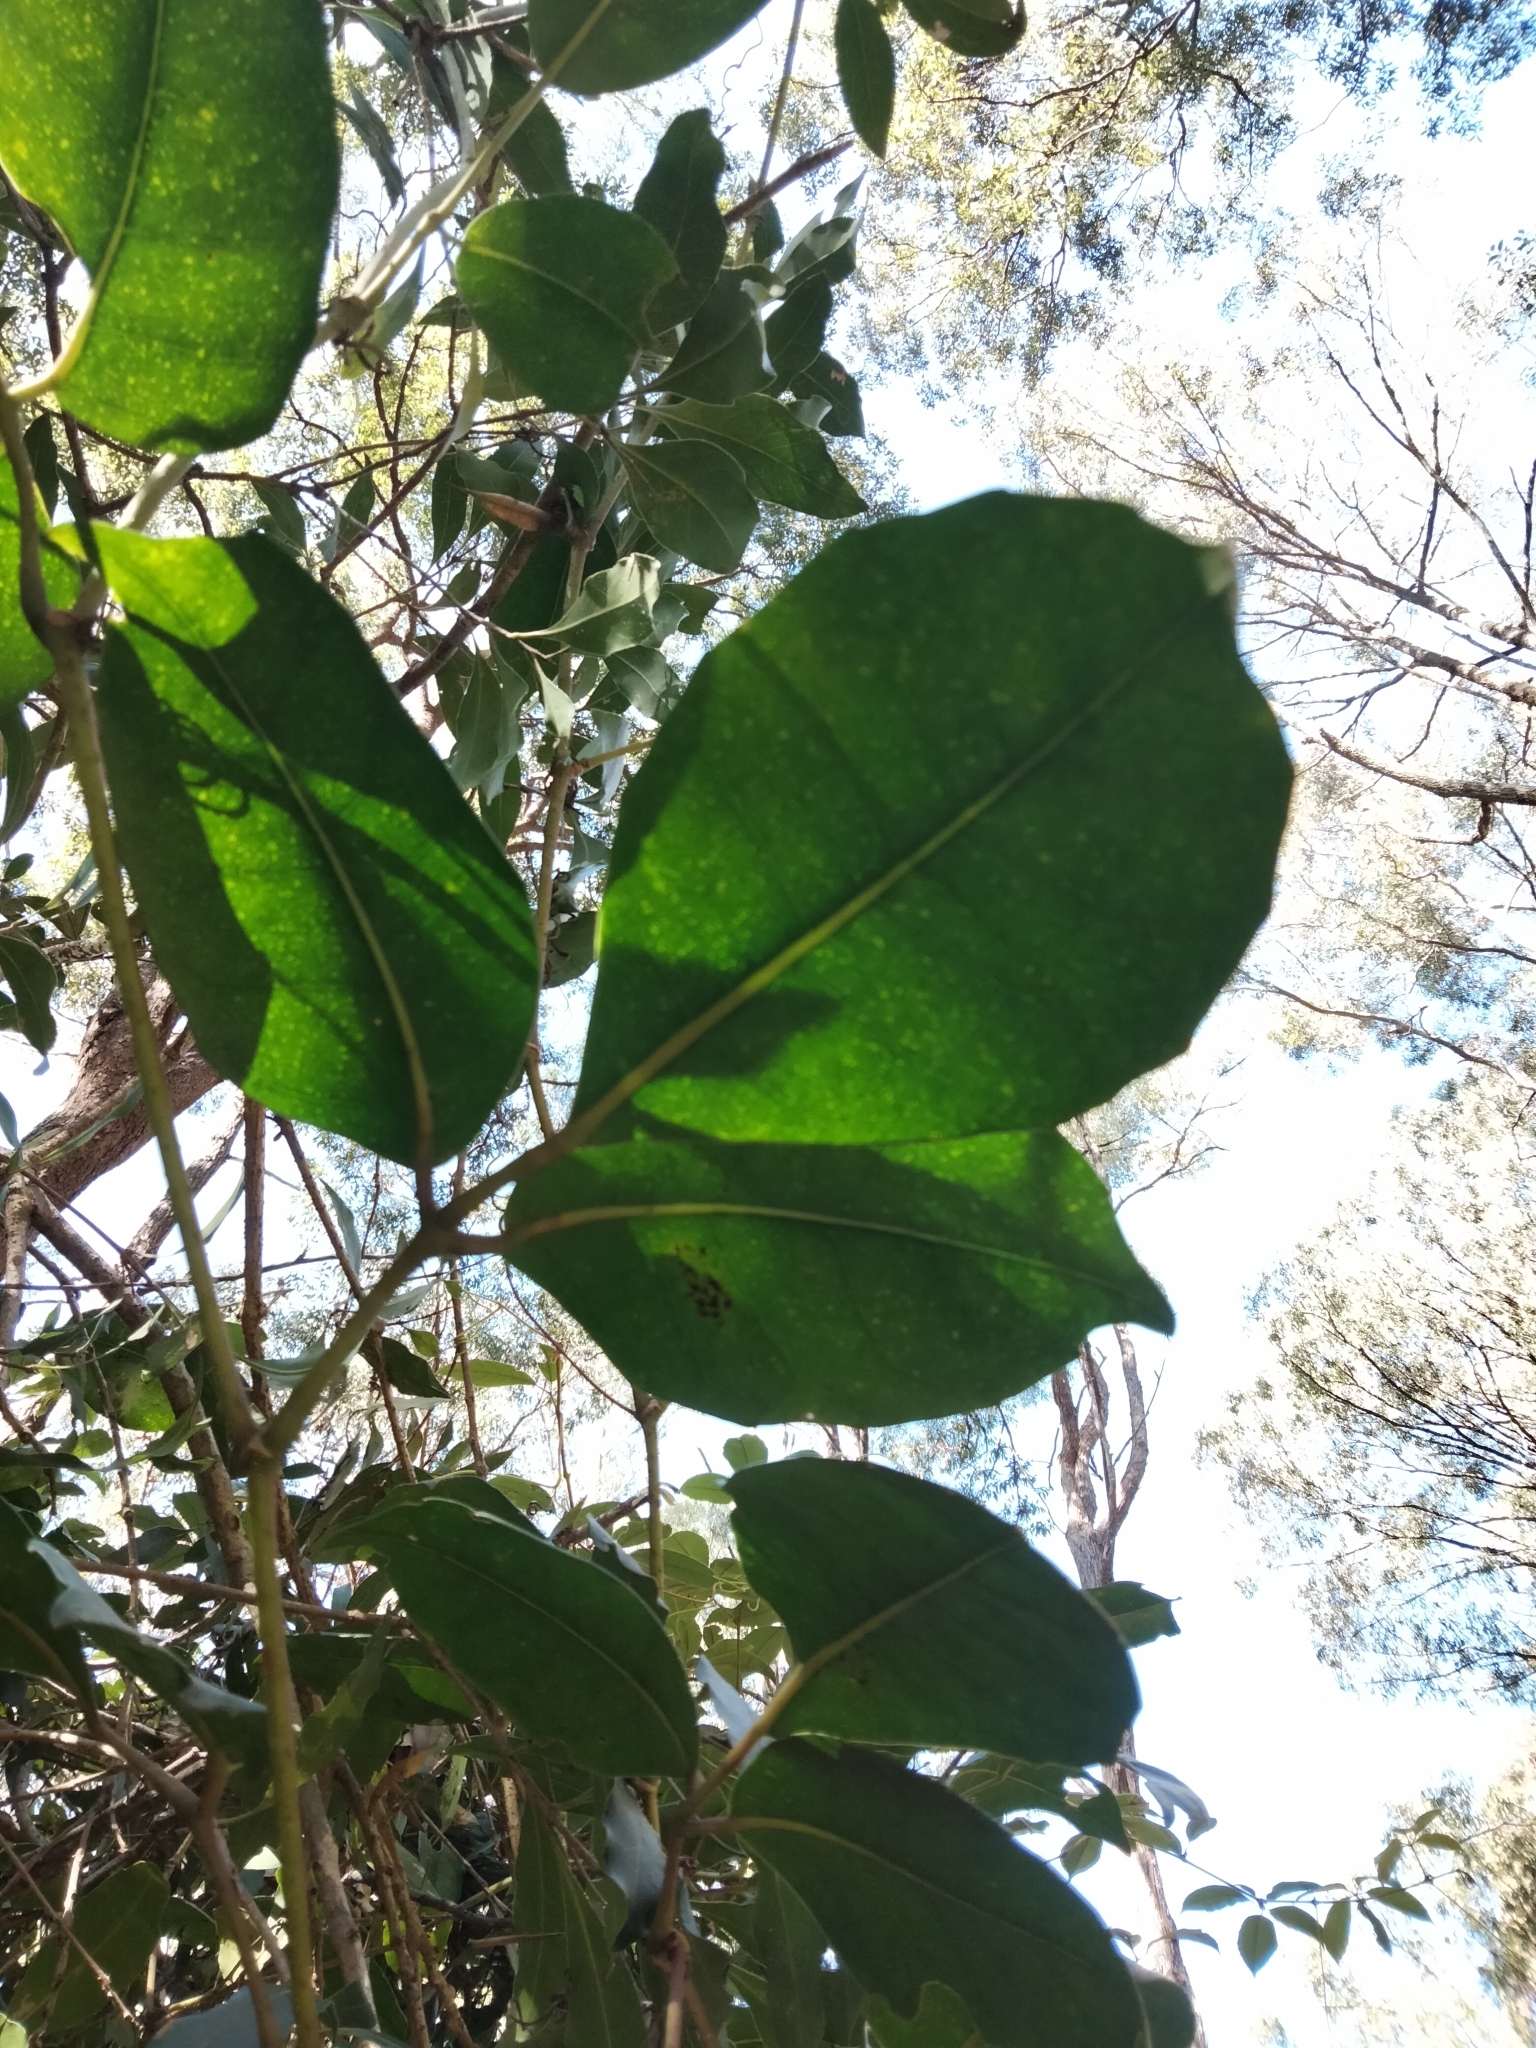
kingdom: Plantae
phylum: Tracheophyta
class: Magnoliopsida
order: Vitales
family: Vitaceae
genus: Tetrastigma
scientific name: Tetrastigma nitens
